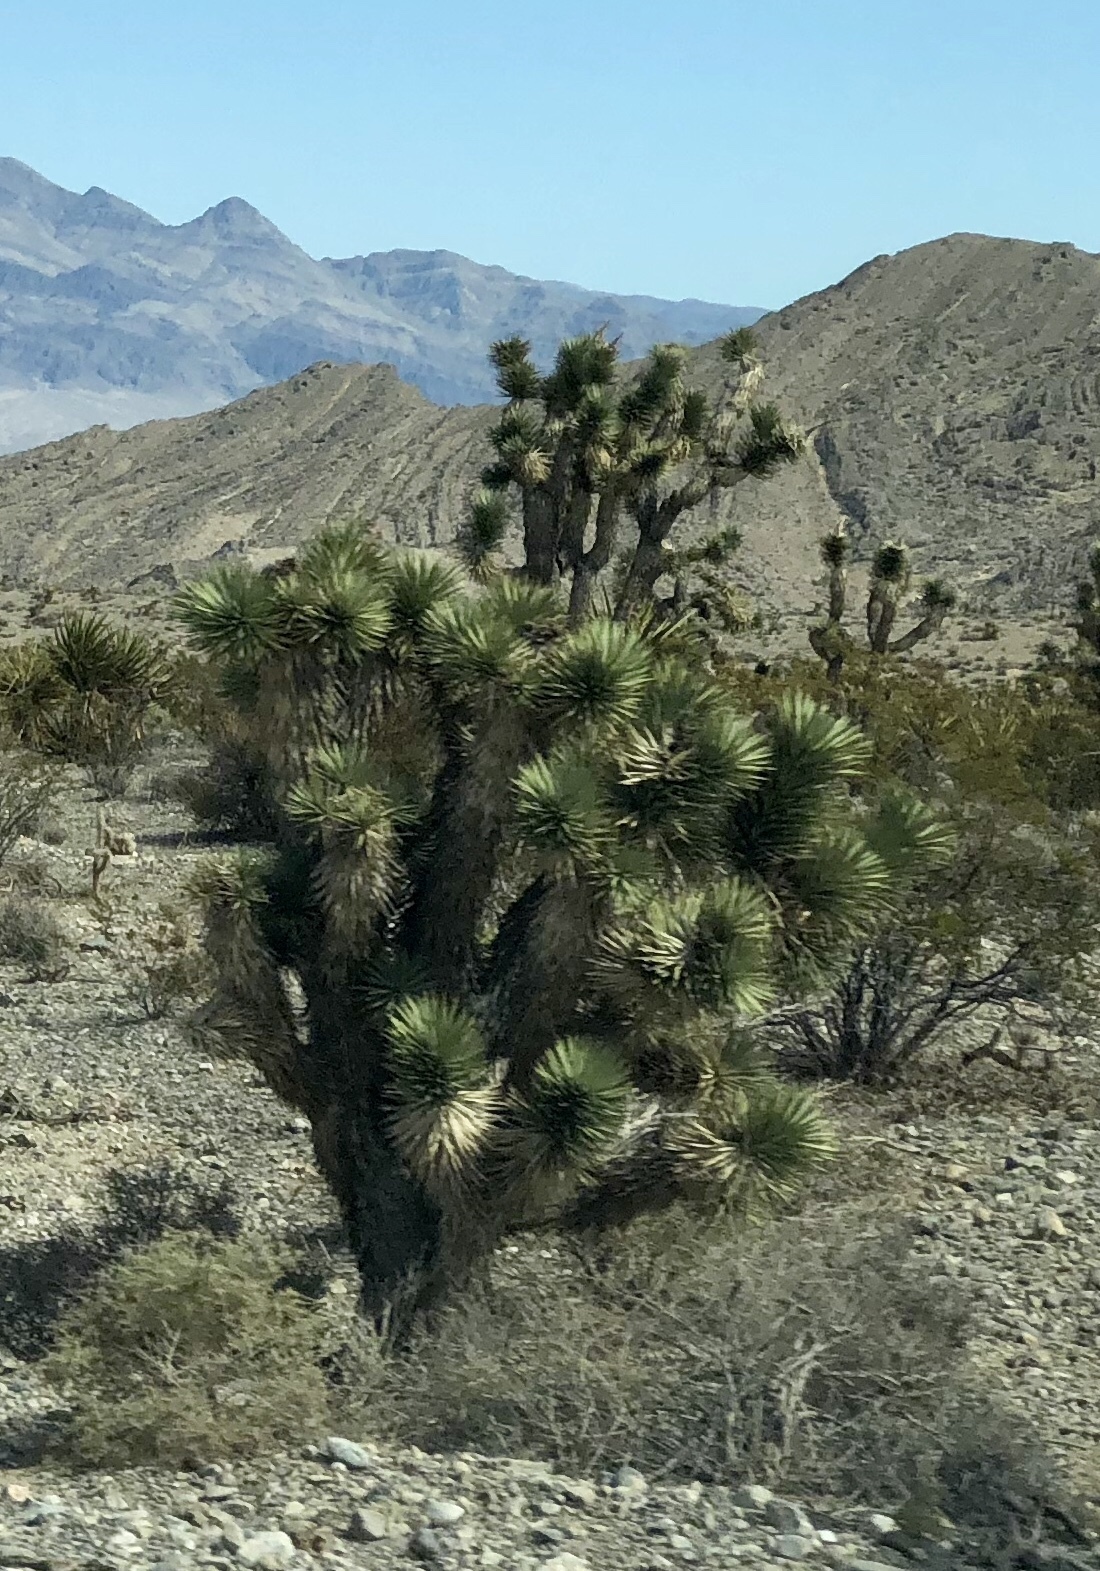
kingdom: Plantae
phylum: Tracheophyta
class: Liliopsida
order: Asparagales
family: Asparagaceae
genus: Yucca
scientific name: Yucca brevifolia
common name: Joshua tree
